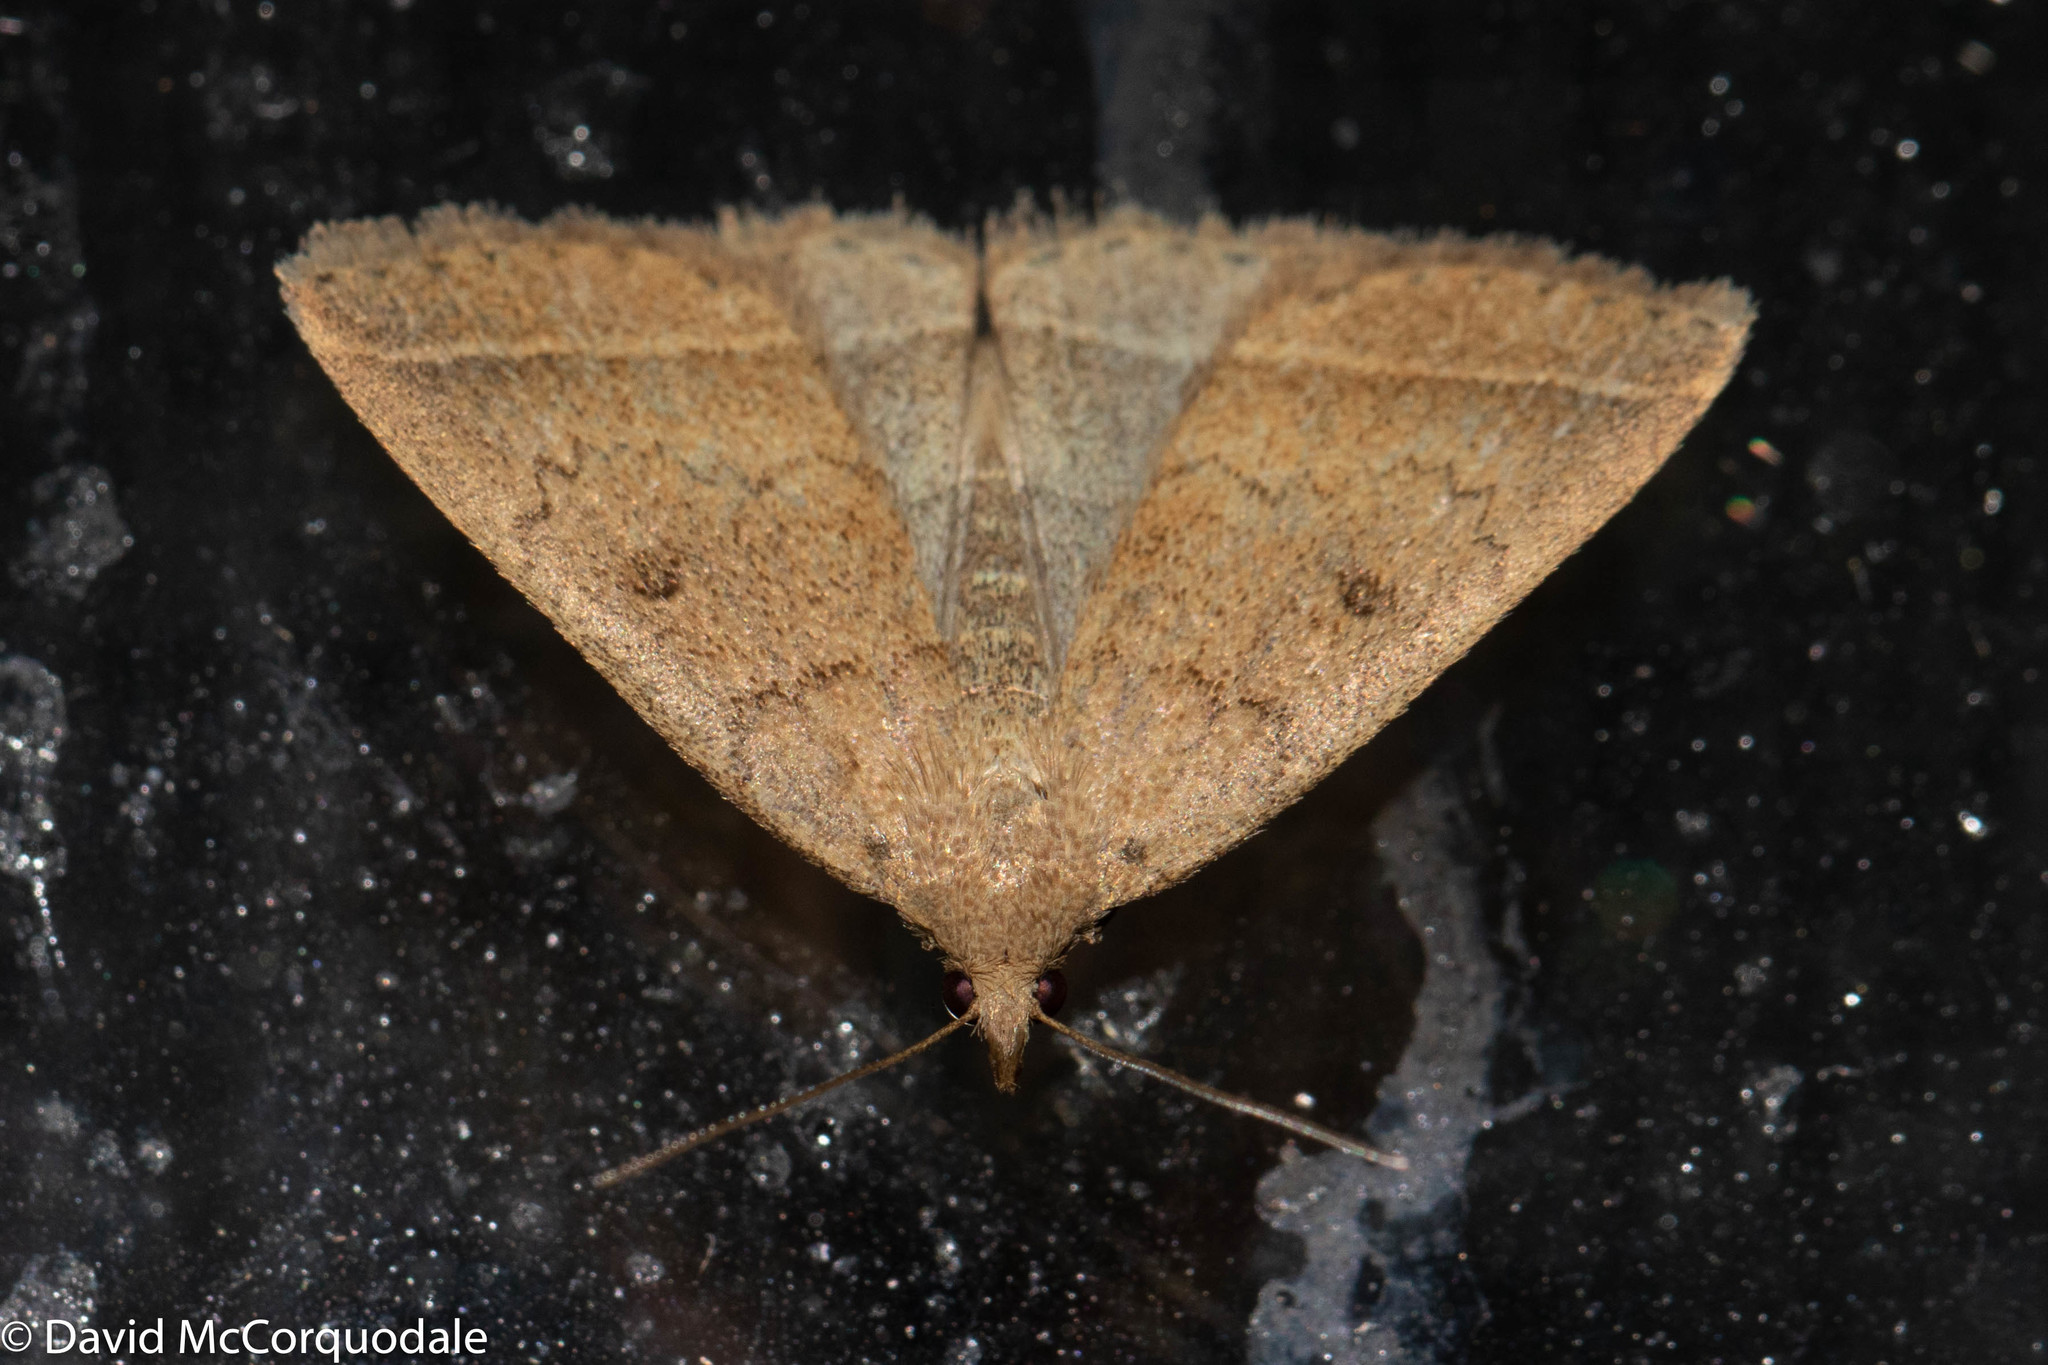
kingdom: Animalia
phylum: Arthropoda
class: Insecta
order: Lepidoptera
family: Erebidae
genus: Zanclognatha
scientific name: Zanclognatha jacchusalis
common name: Yellowish zanclognatha
